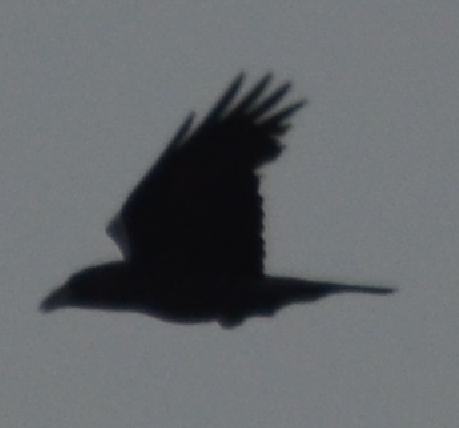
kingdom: Animalia
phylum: Chordata
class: Aves
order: Passeriformes
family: Corvidae
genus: Corvus
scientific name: Corvus corax
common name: Common raven
